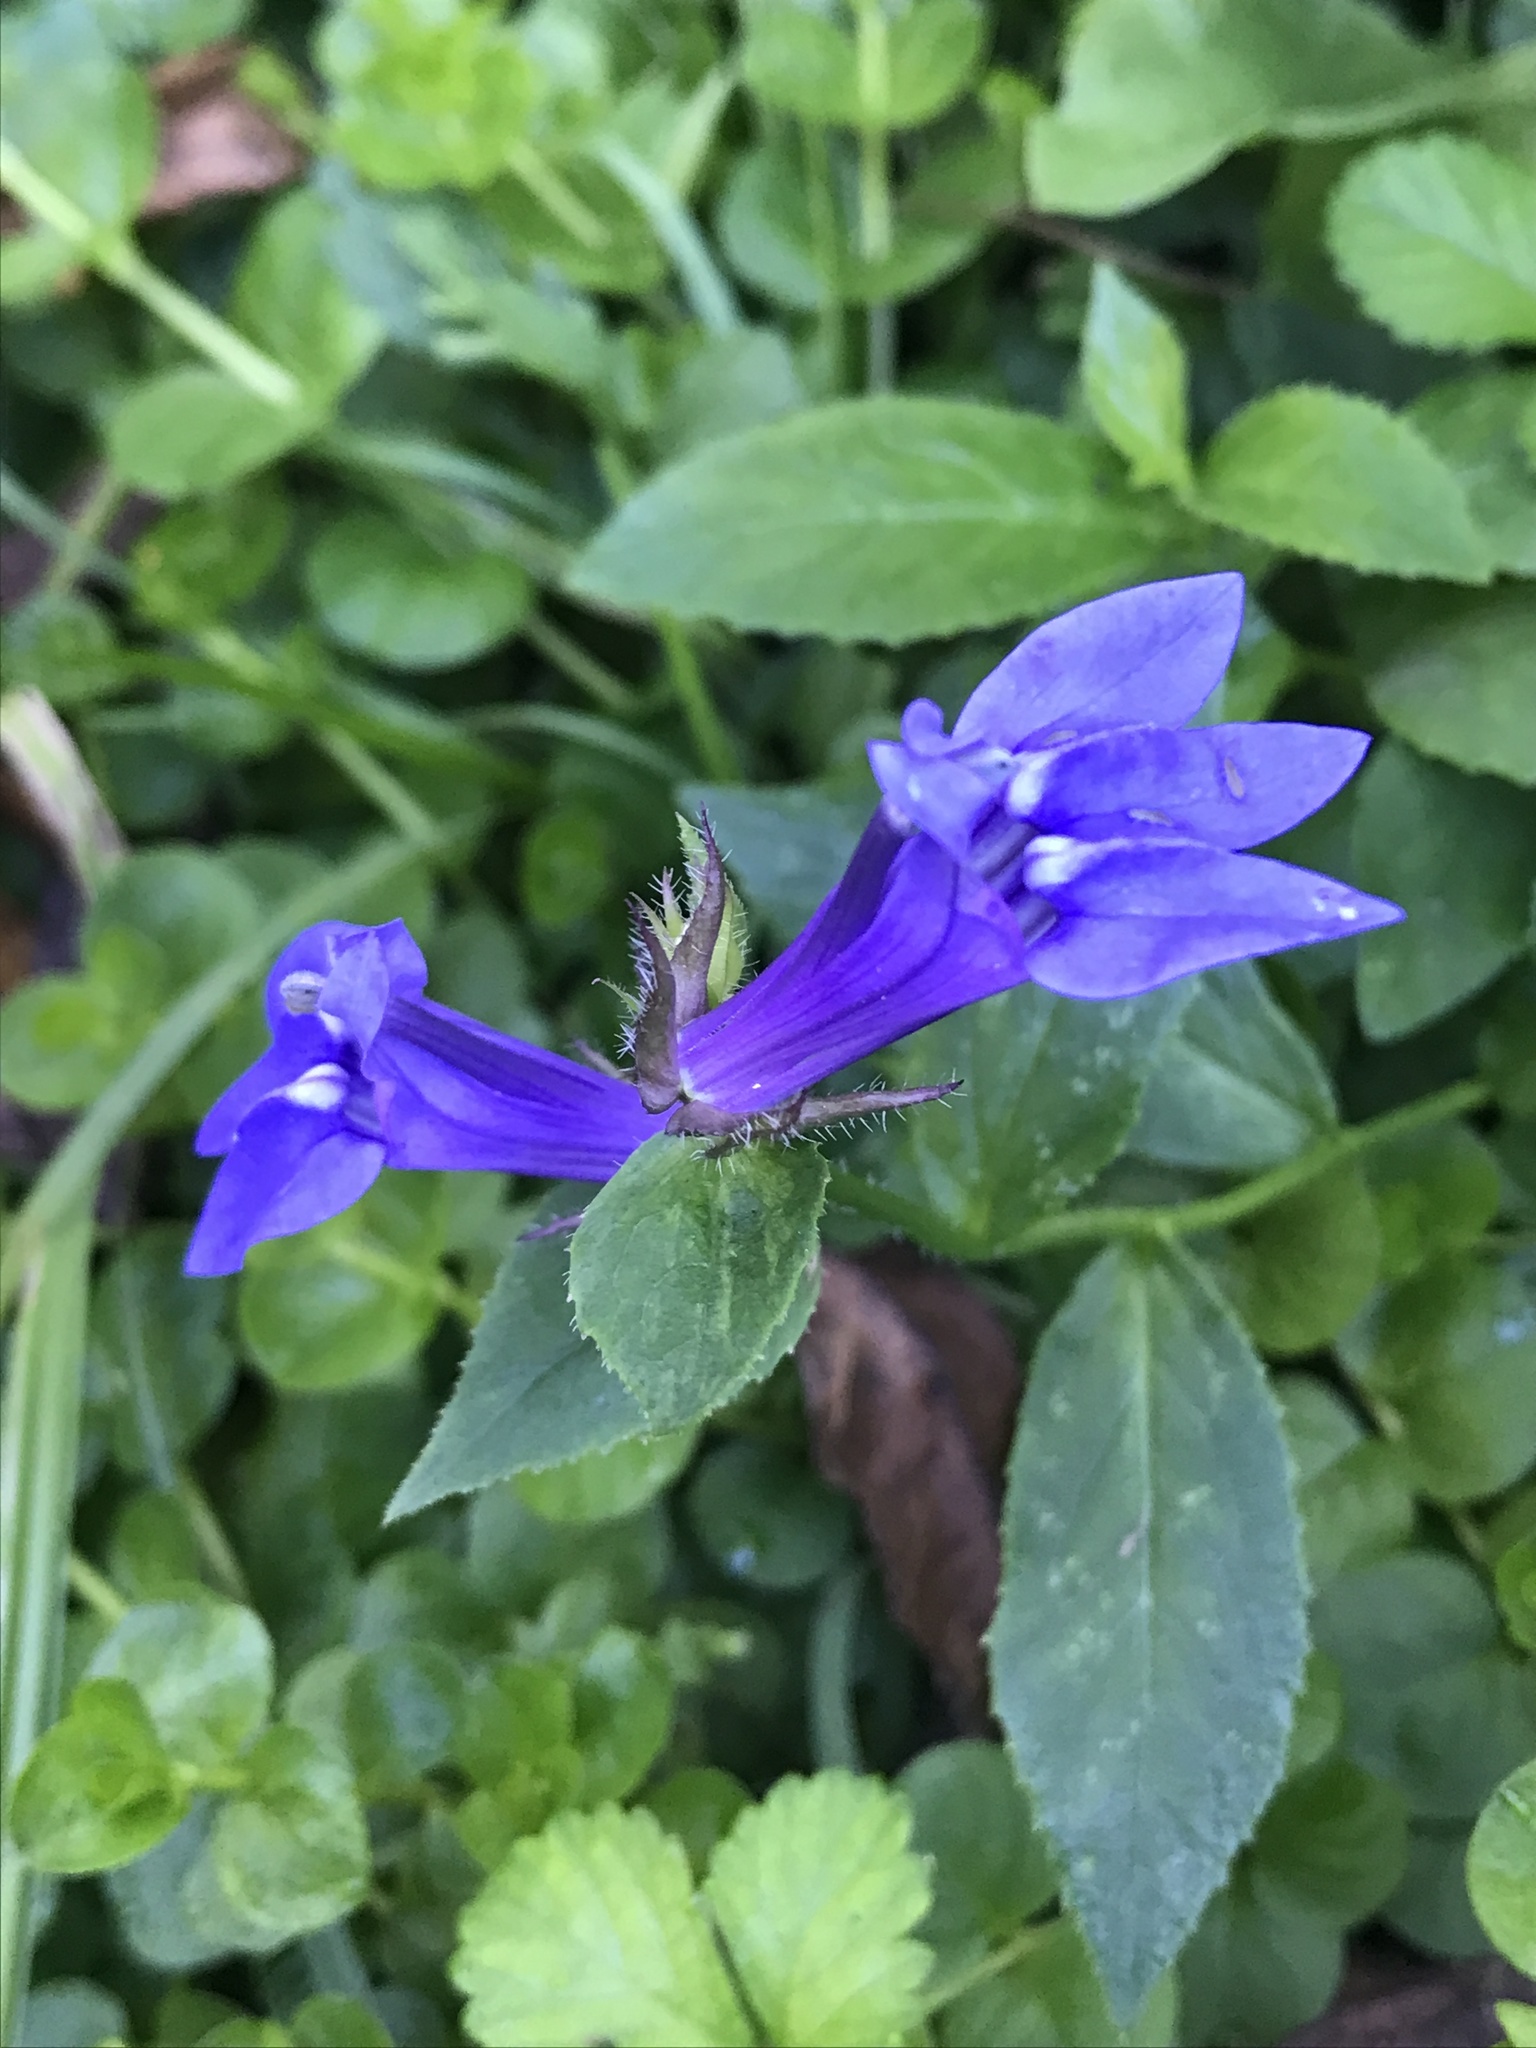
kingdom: Plantae
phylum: Tracheophyta
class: Magnoliopsida
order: Asterales
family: Campanulaceae
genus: Lobelia
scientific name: Lobelia siphilitica
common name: Great lobelia
